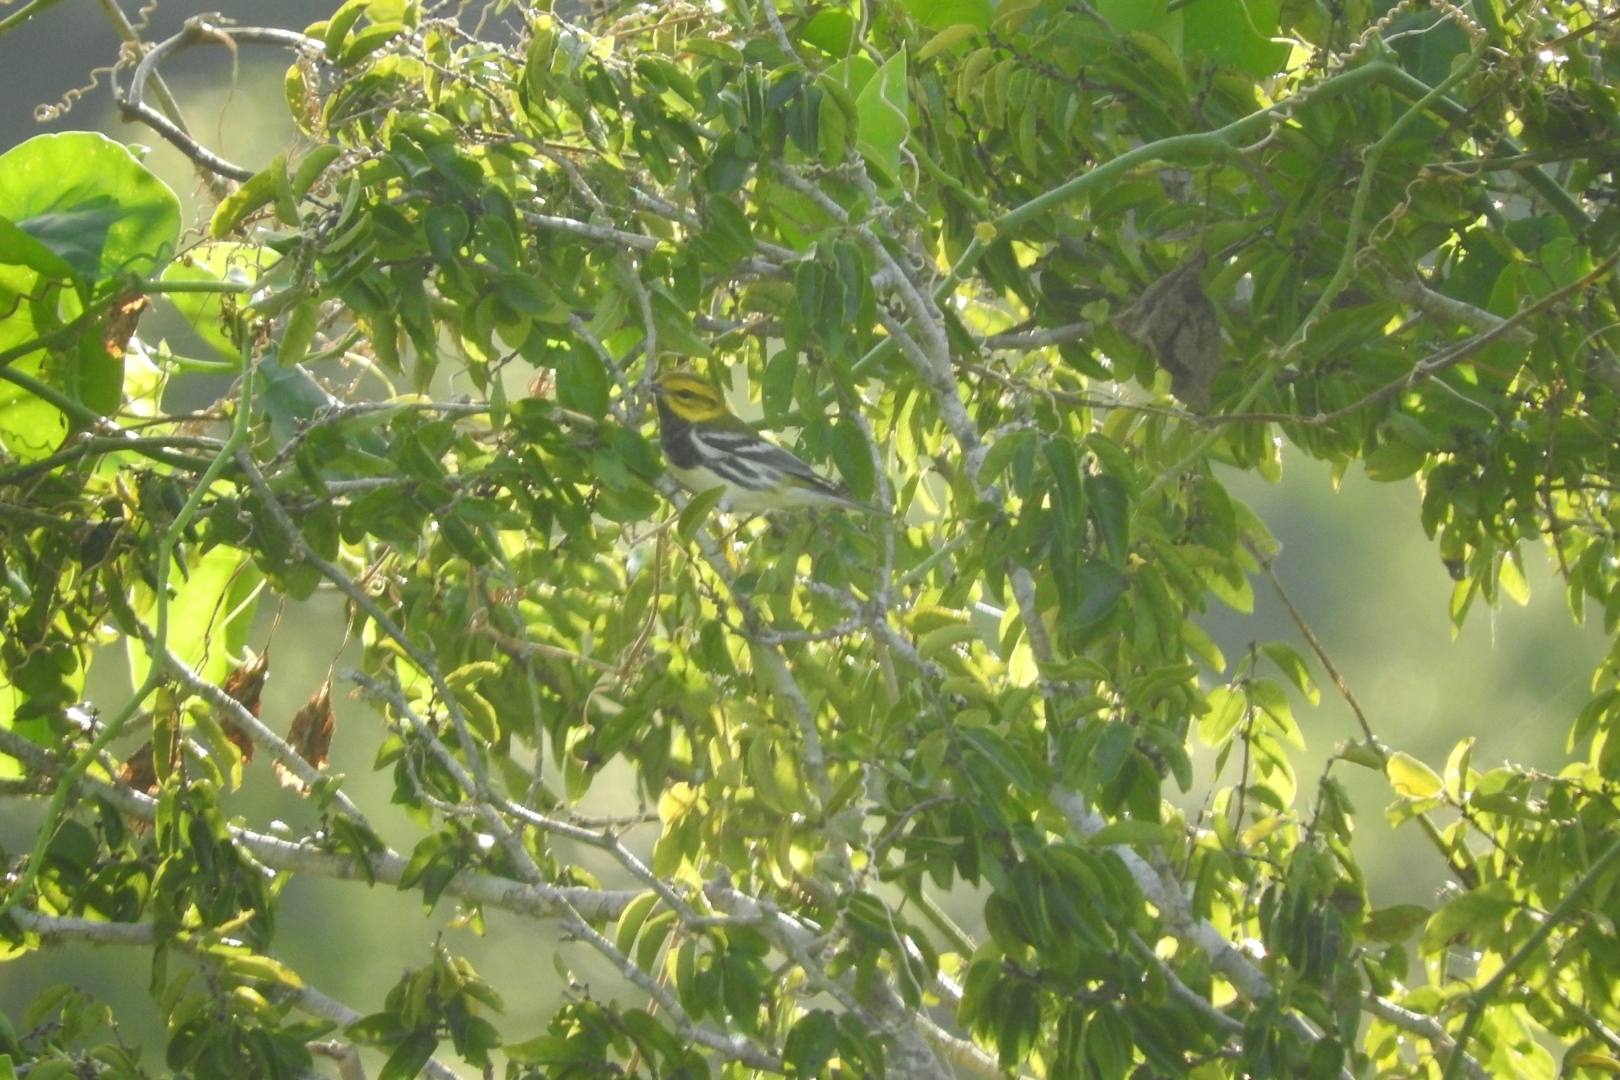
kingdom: Animalia
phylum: Chordata
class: Aves
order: Passeriformes
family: Parulidae
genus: Setophaga
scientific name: Setophaga virens
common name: Black-throated green warbler
